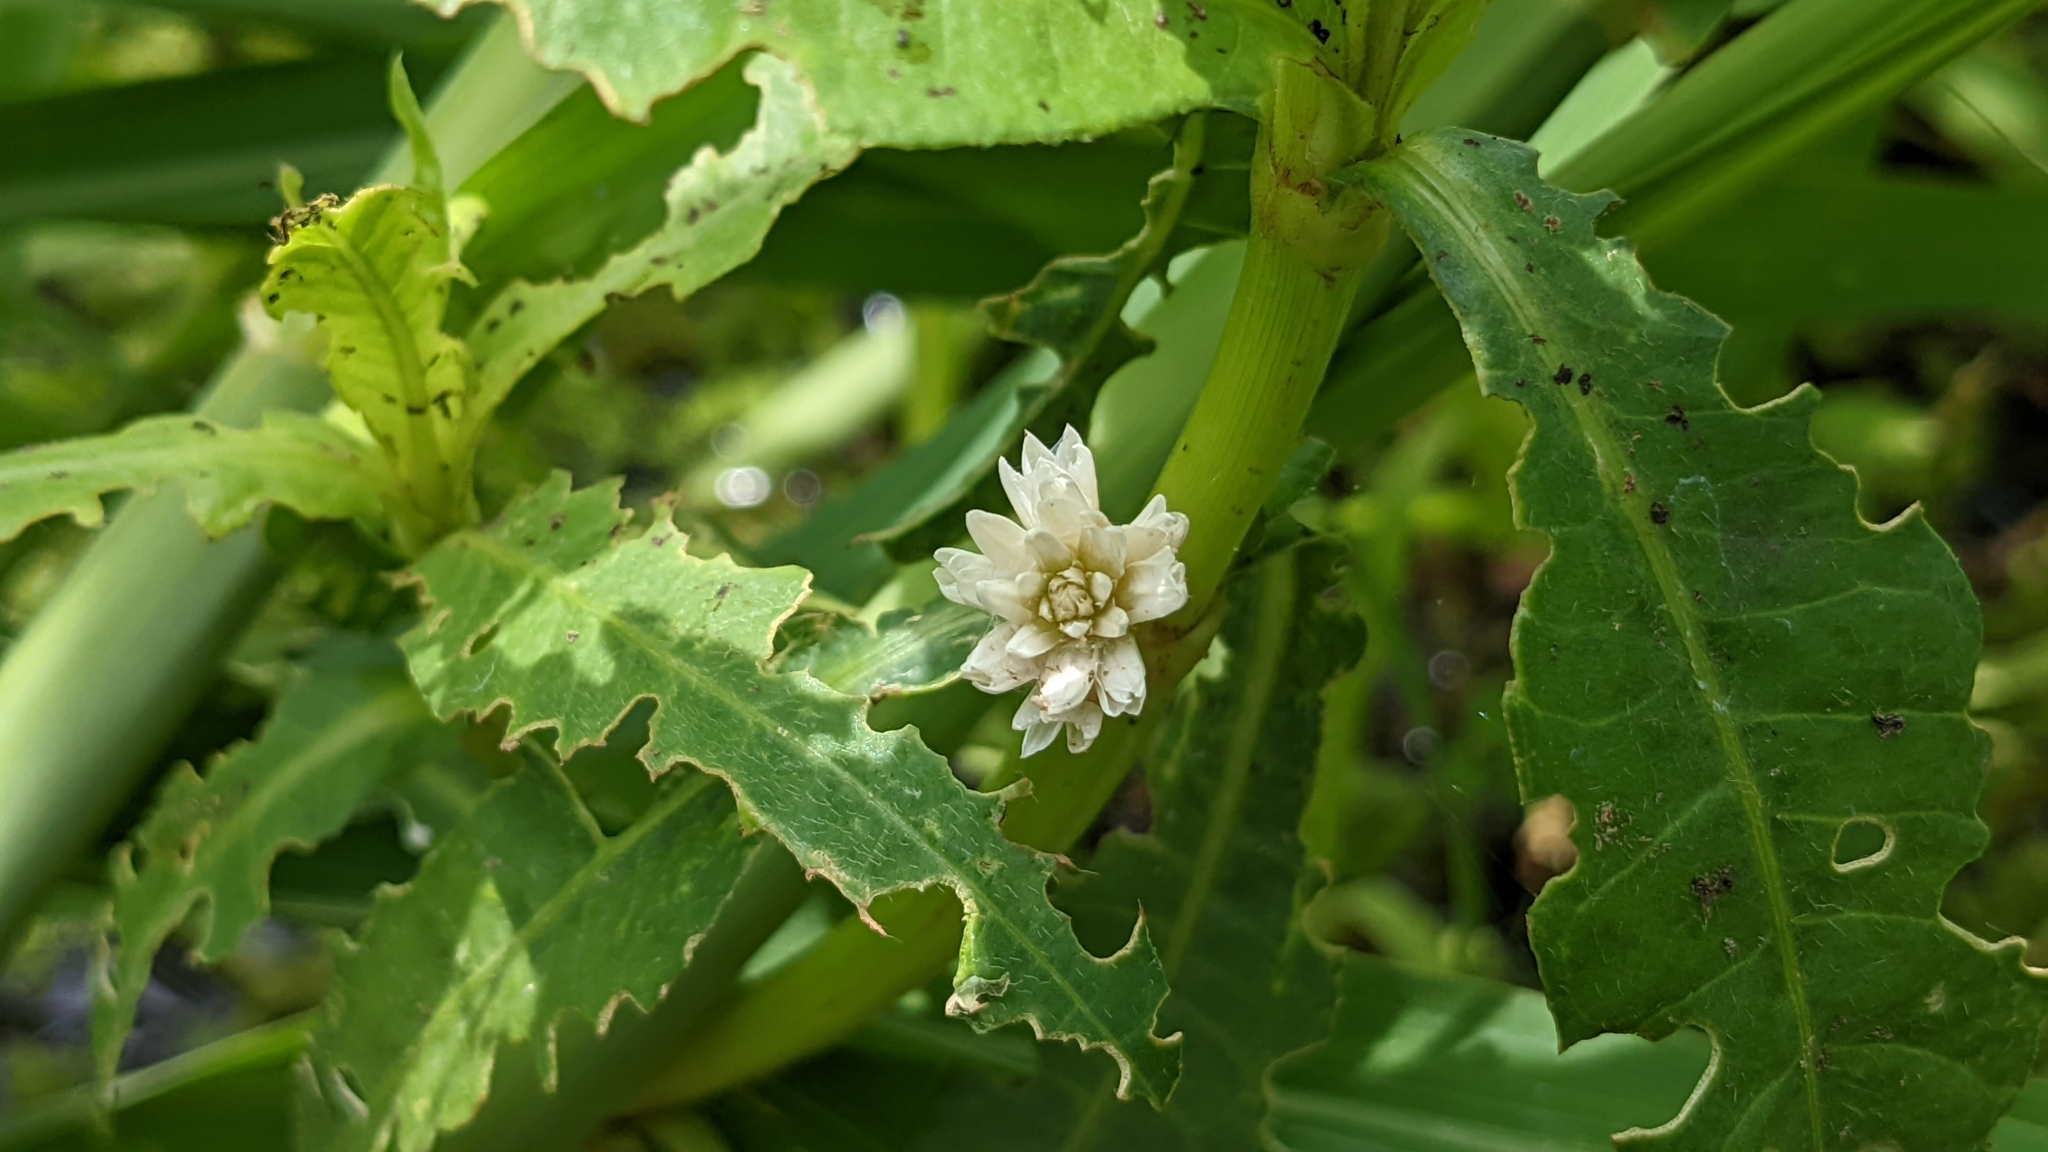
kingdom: Plantae
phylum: Tracheophyta
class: Magnoliopsida
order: Caryophyllales
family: Amaranthaceae
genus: Alternanthera
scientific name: Alternanthera philoxeroides
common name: Alligatorweed
